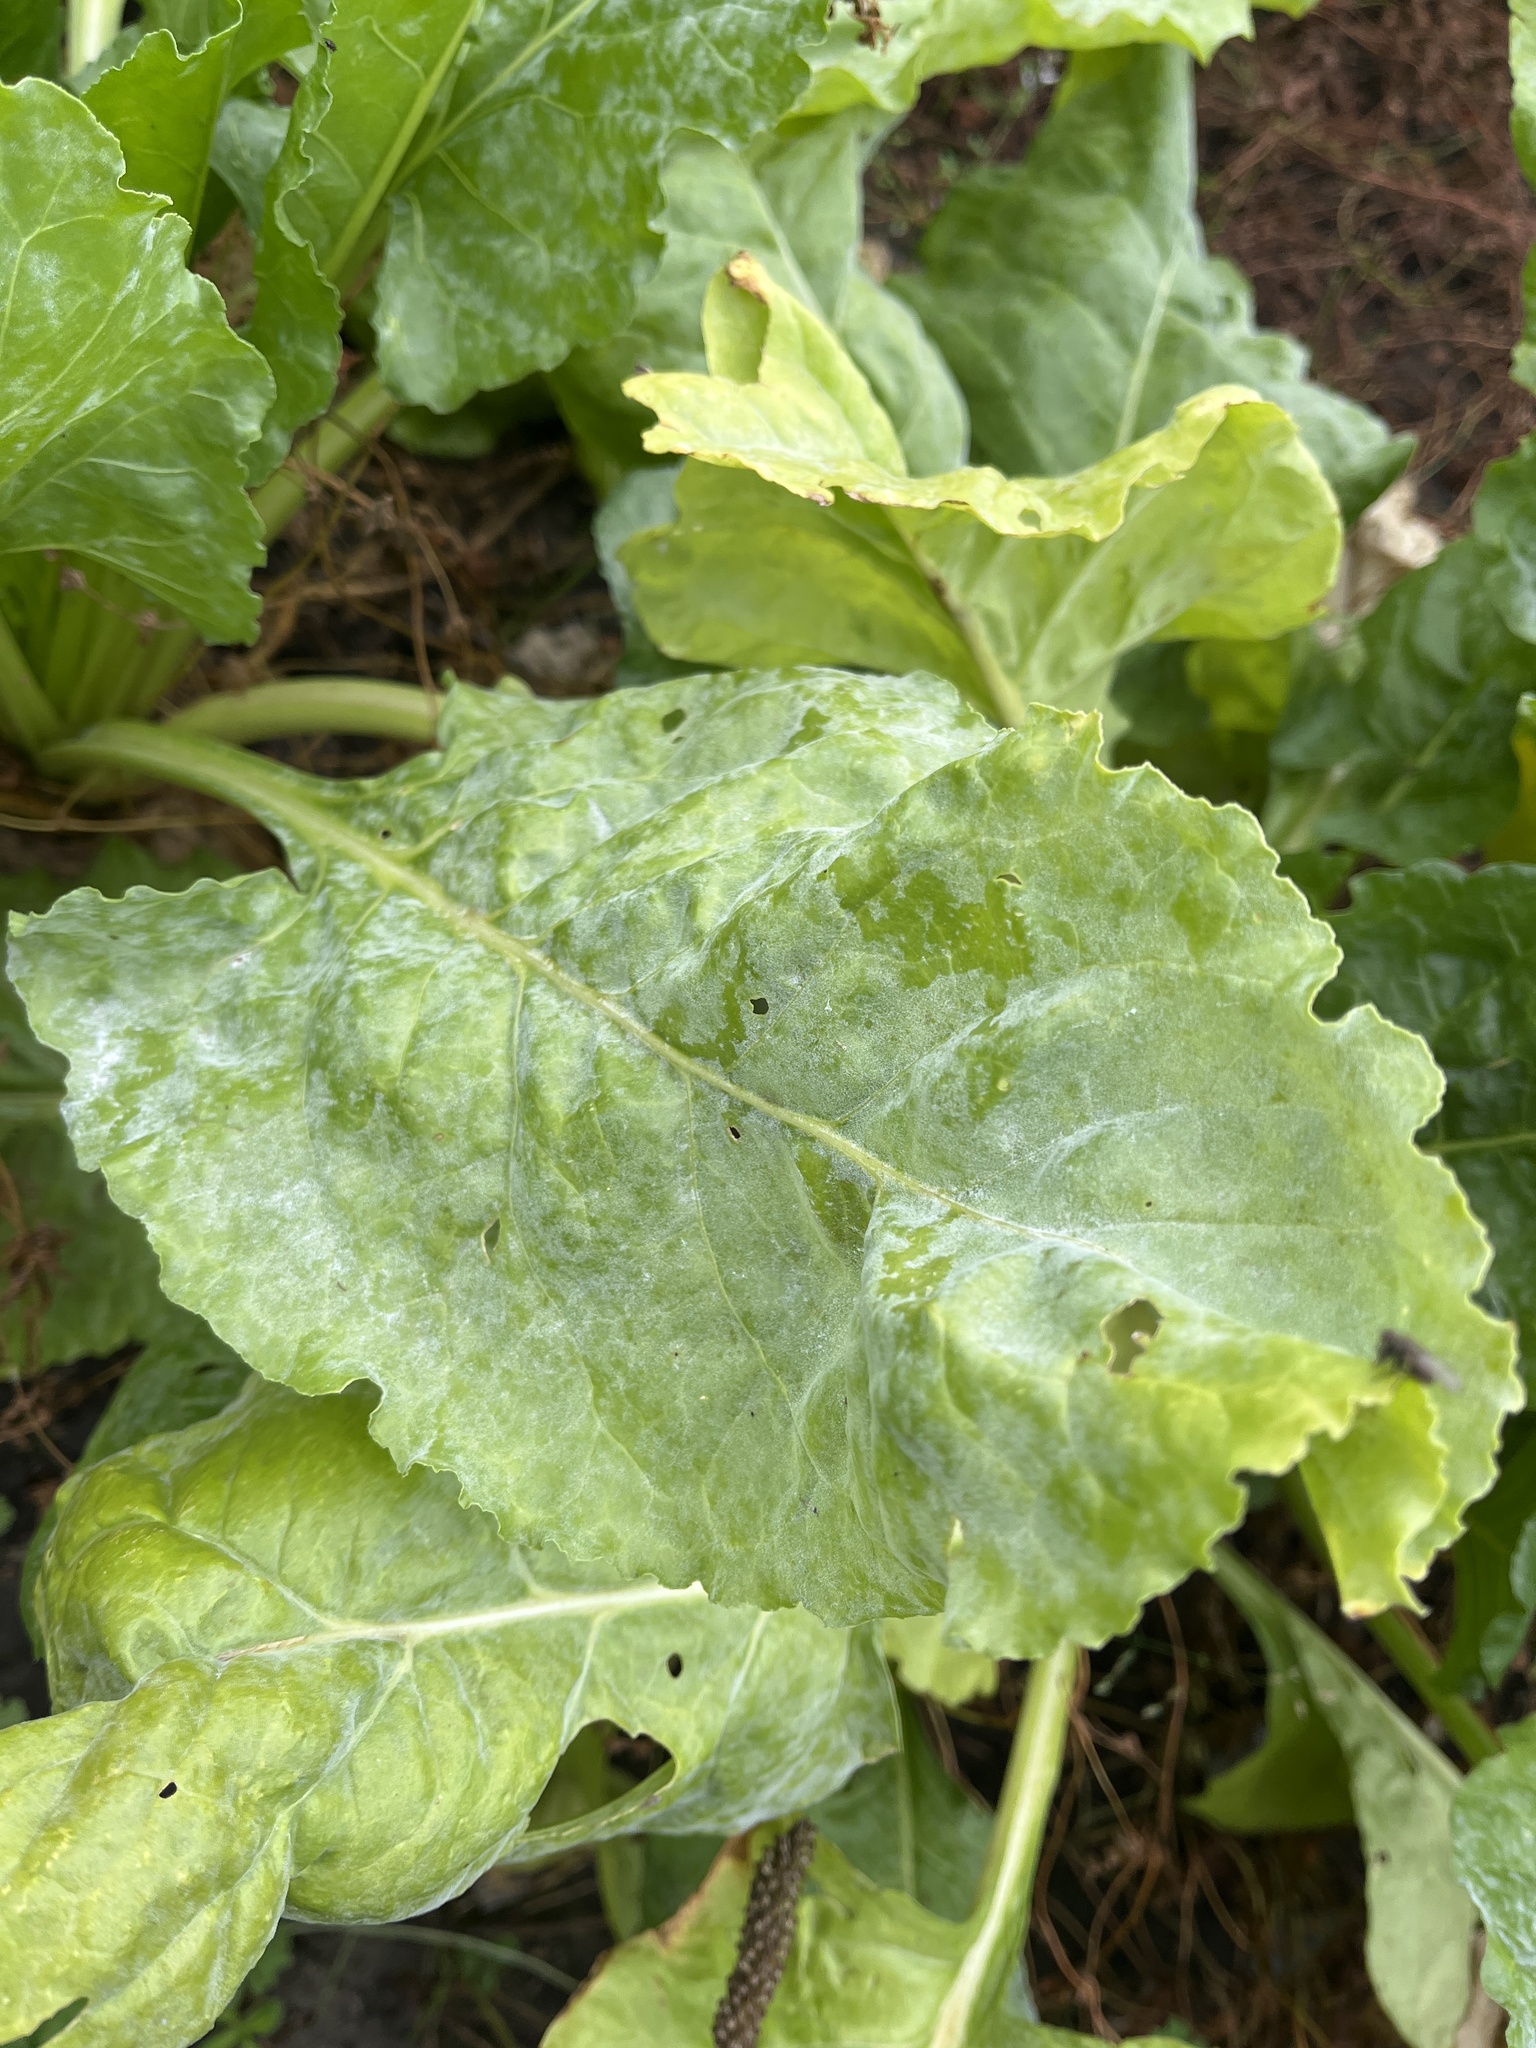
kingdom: Fungi
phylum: Ascomycota
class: Leotiomycetes
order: Helotiales
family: Erysiphaceae
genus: Erysiphe
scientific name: Erysiphe betae
